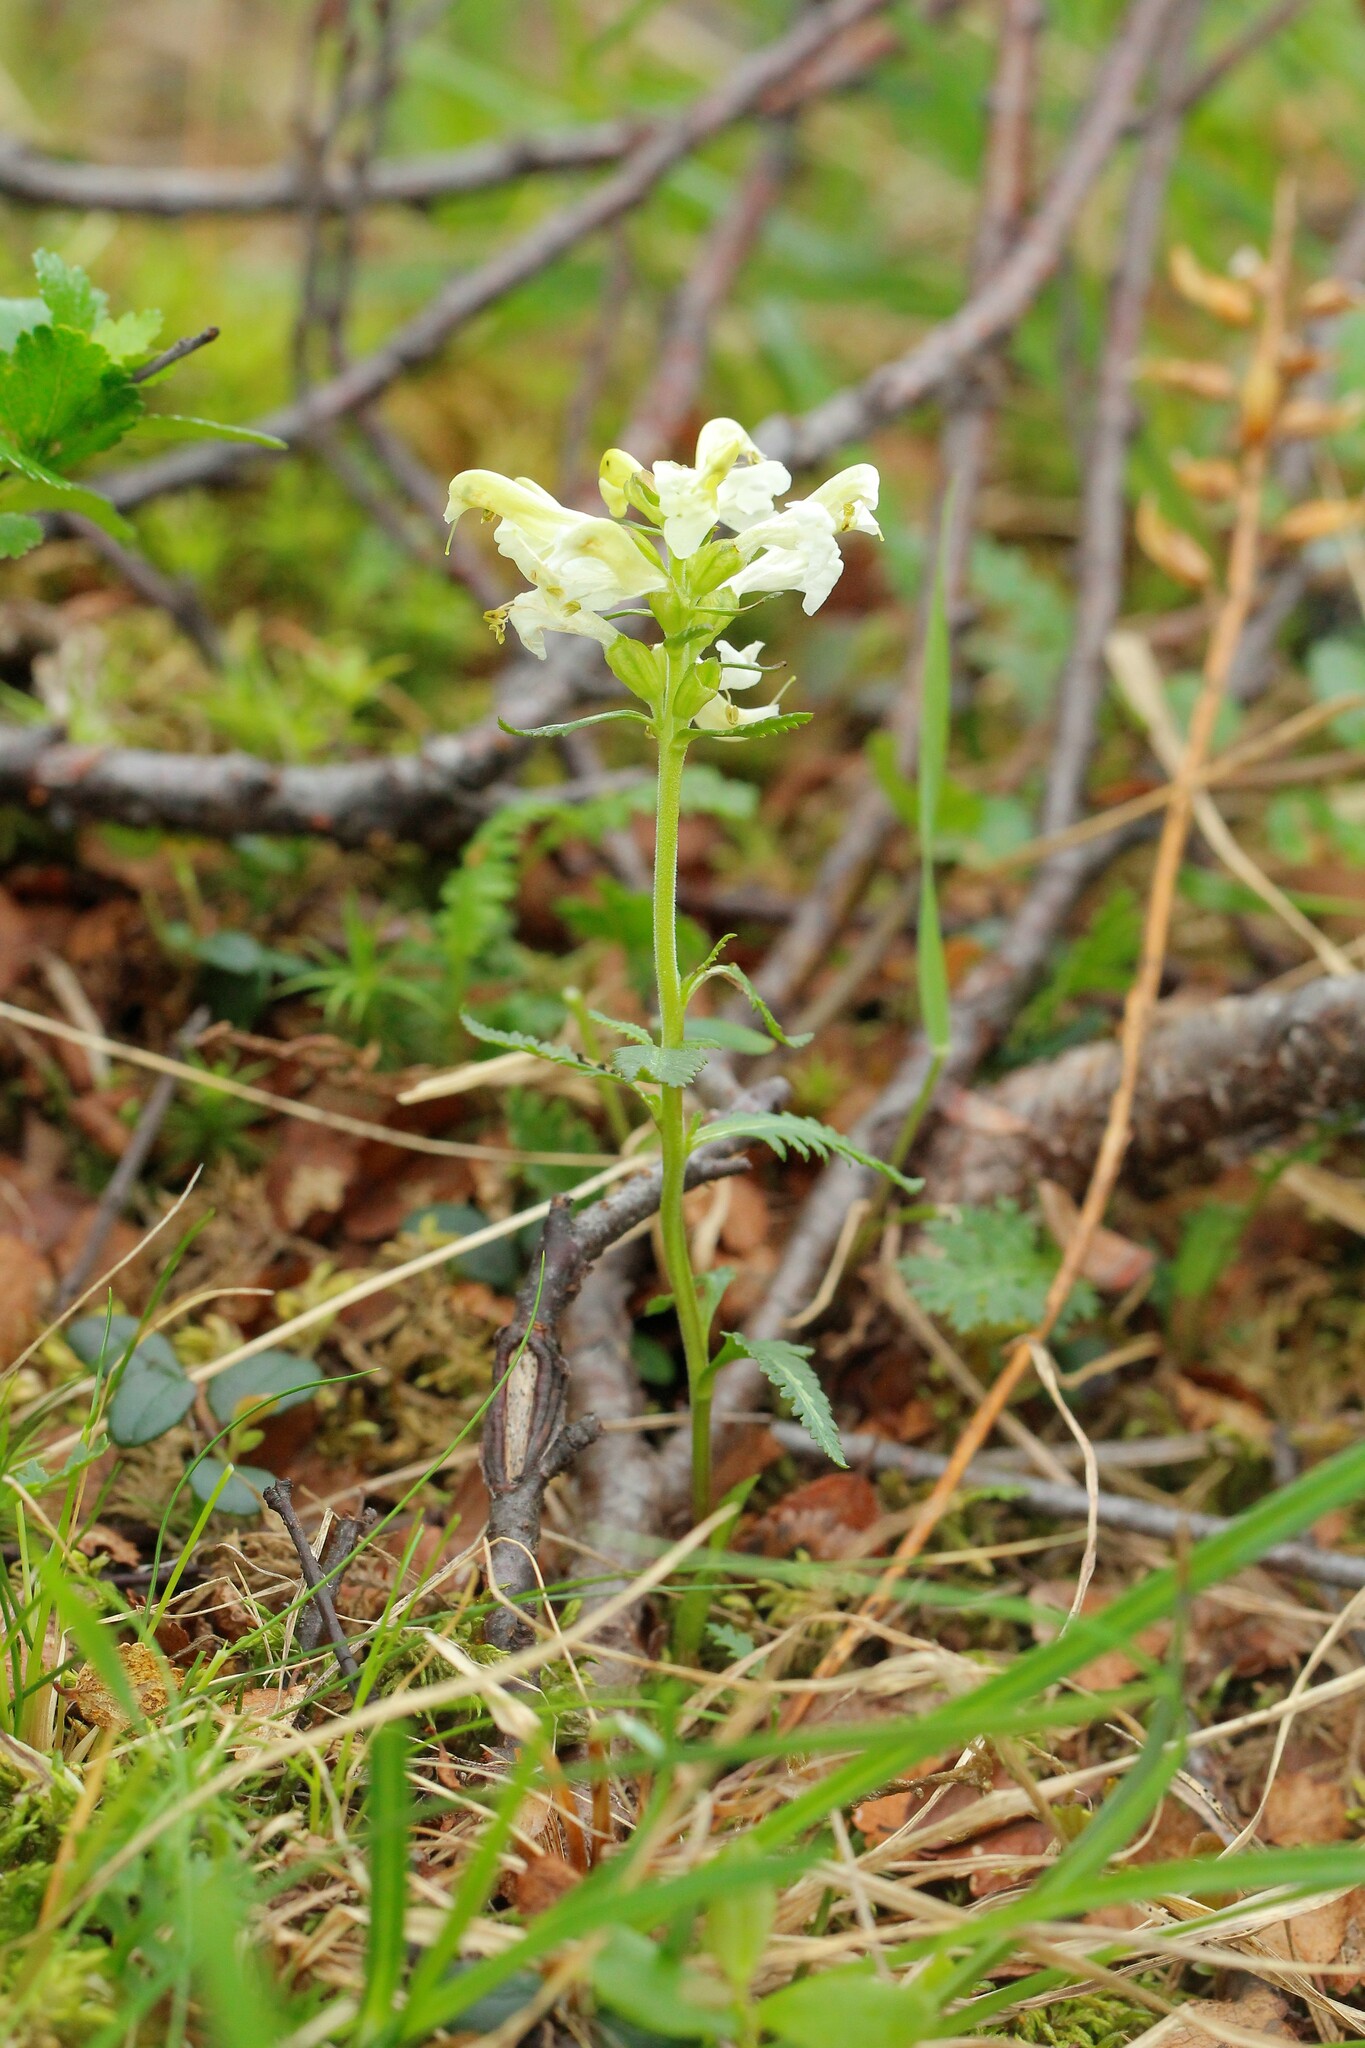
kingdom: Plantae
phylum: Tracheophyta
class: Magnoliopsida
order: Lamiales
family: Orobanchaceae
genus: Pedicularis
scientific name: Pedicularis lapponica
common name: Lapland lousewort
